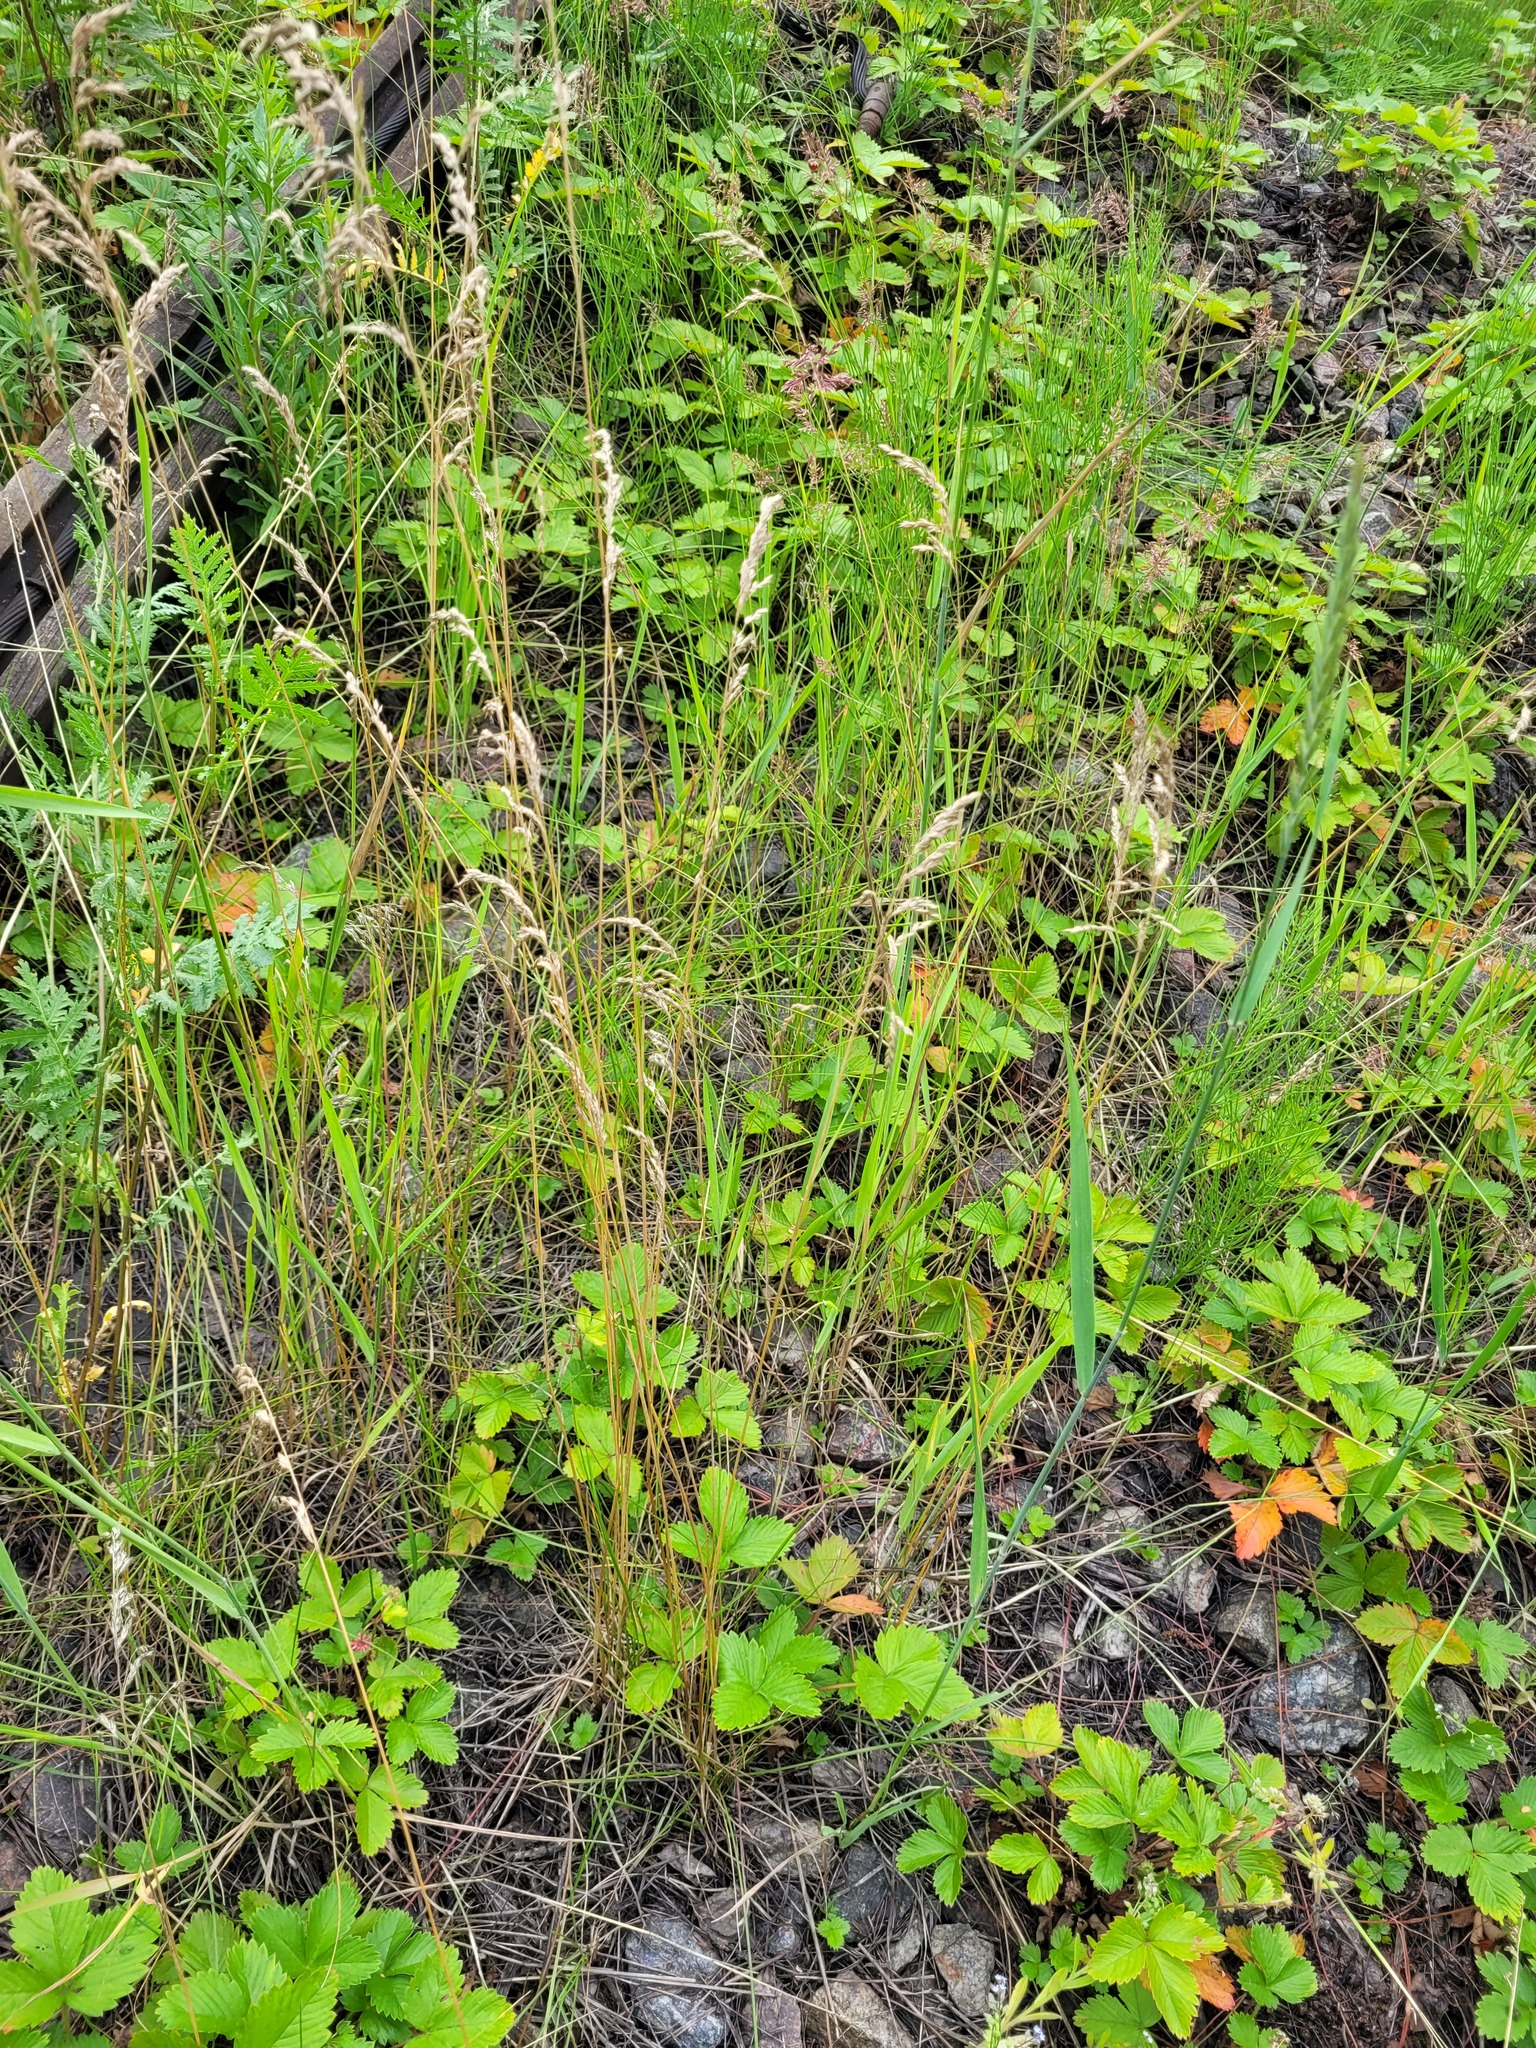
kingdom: Plantae
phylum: Tracheophyta
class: Liliopsida
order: Poales
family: Poaceae
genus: Poa
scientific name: Poa angustifolia
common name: Narrow-leaved meadow-grass
